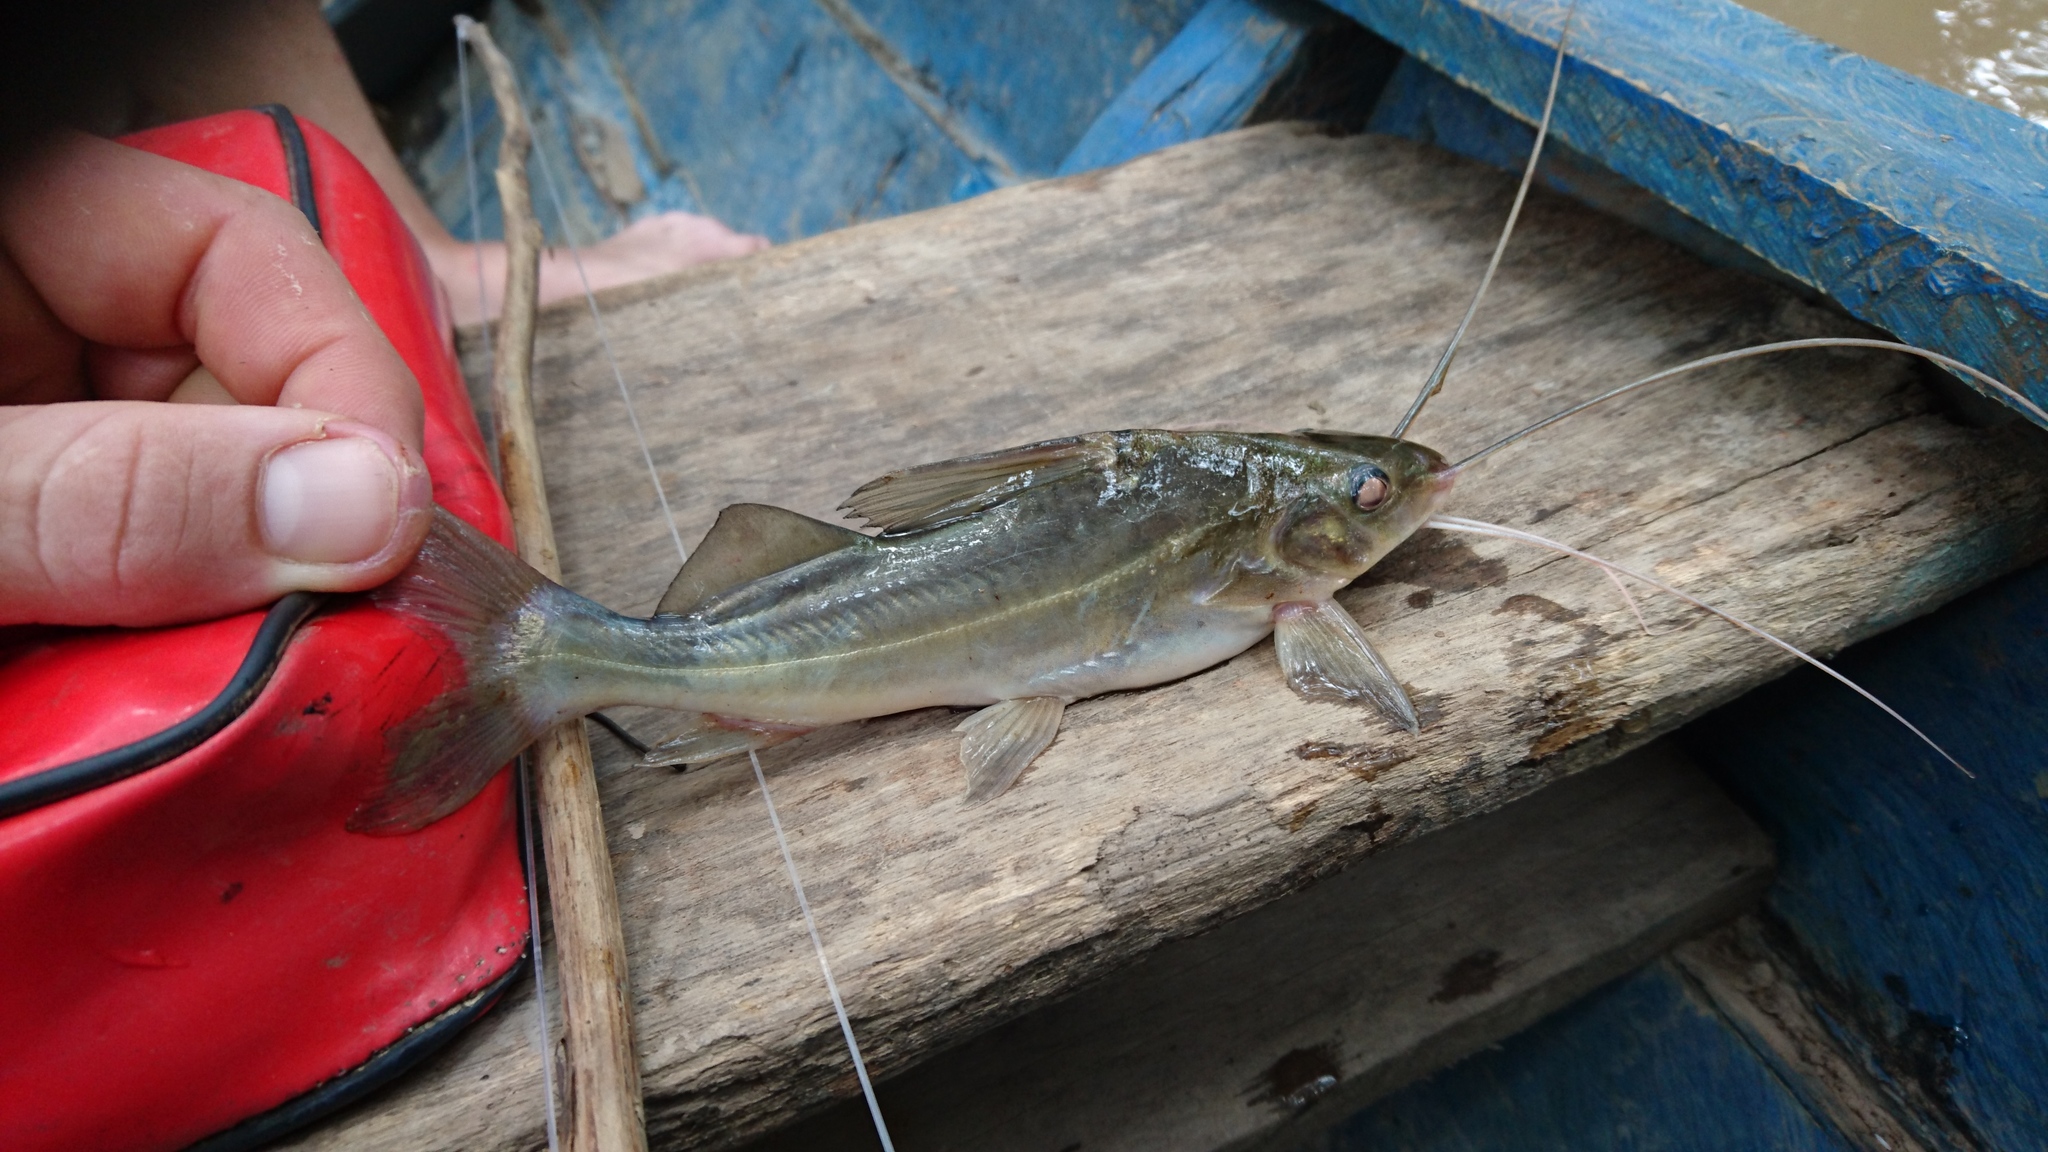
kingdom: Animalia
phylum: Chordata
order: Siluriformes
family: Pimelodidae
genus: Pimelodus
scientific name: Pimelodus blochii
